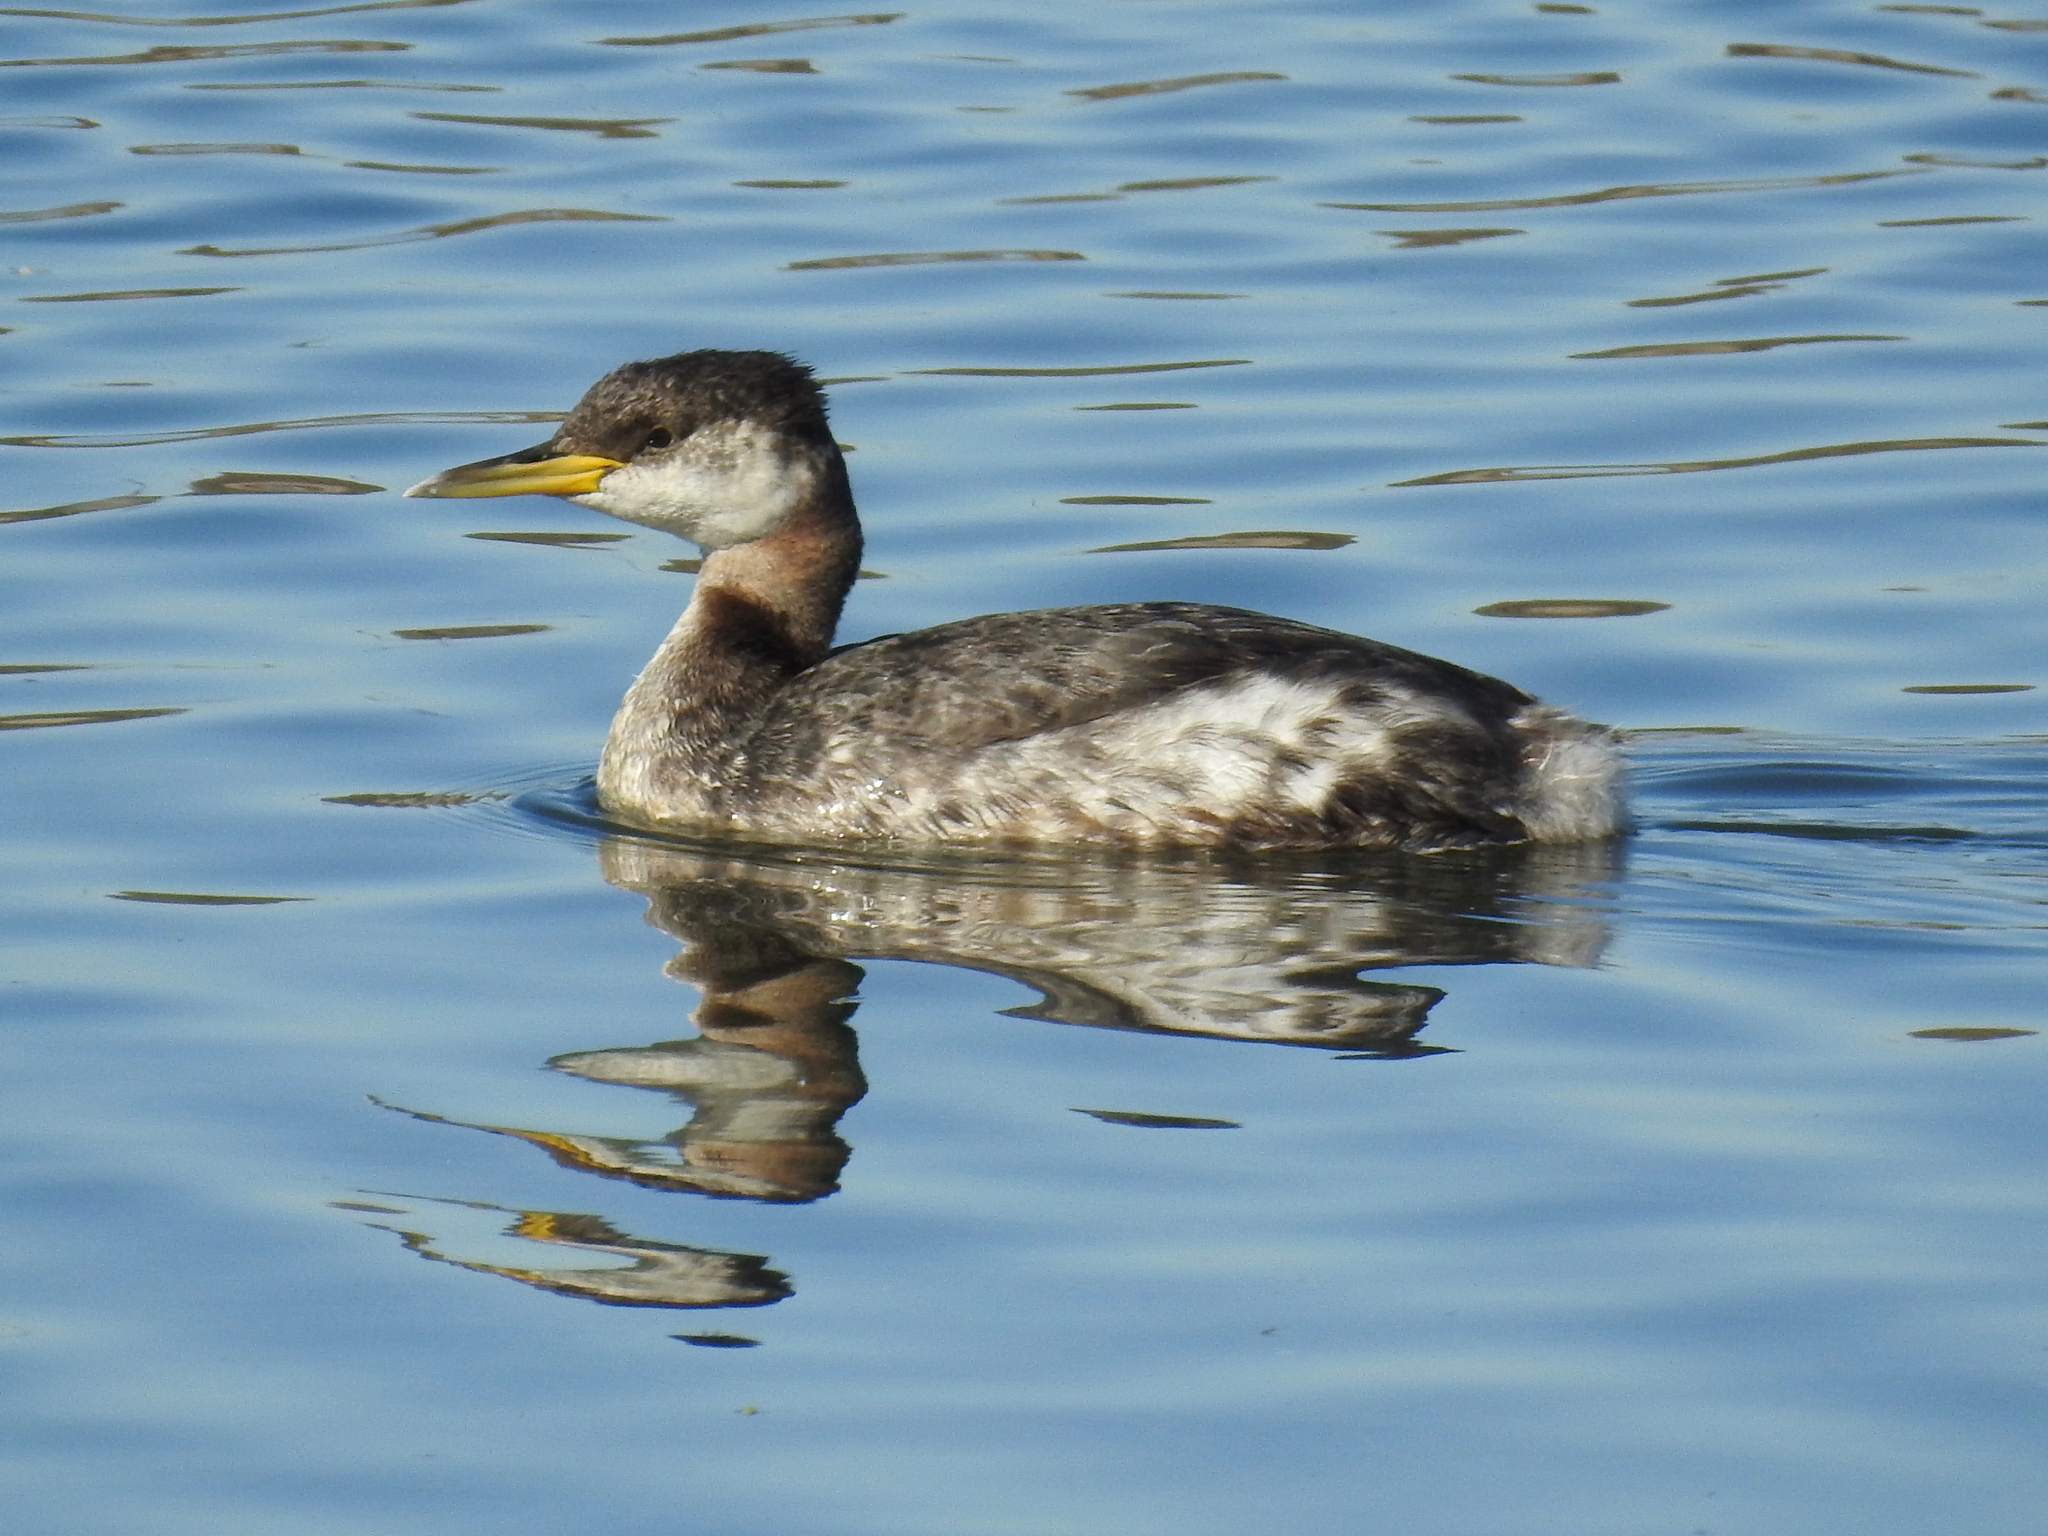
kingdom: Animalia
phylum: Chordata
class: Aves
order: Podicipediformes
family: Podicipedidae
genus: Podiceps
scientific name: Podiceps grisegena
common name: Red-necked grebe
